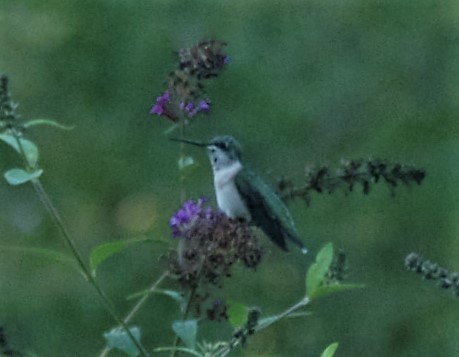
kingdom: Animalia
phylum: Chordata
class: Aves
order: Apodiformes
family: Trochilidae
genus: Archilochus
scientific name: Archilochus colubris
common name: Ruby-throated hummingbird
